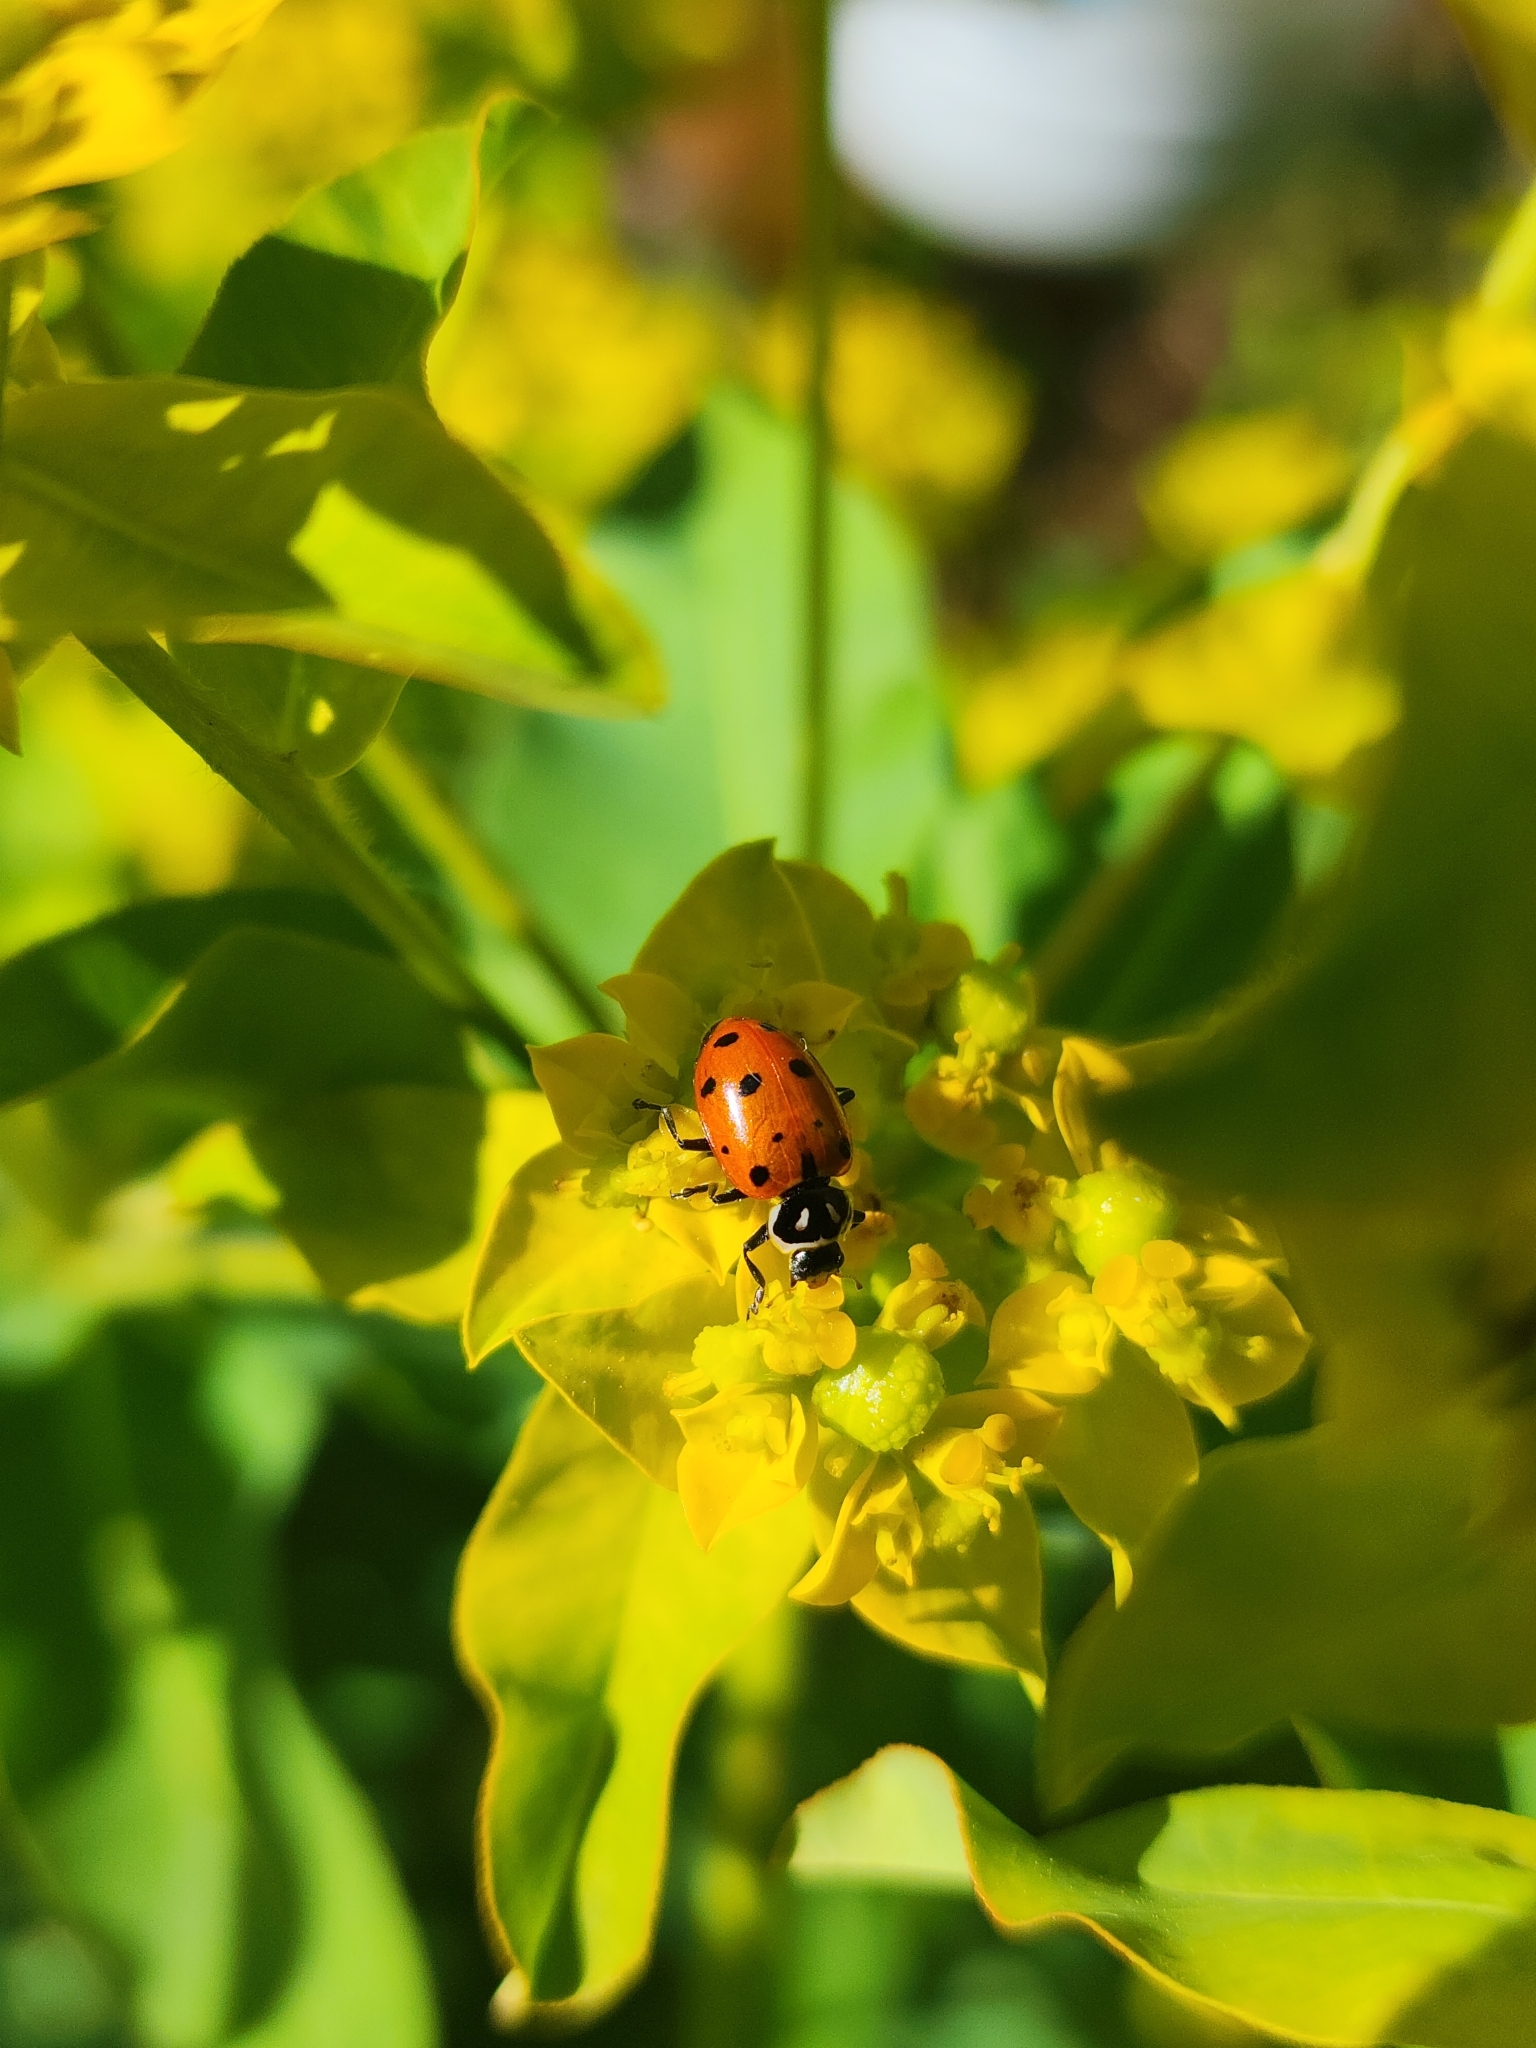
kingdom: Animalia
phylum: Arthropoda
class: Insecta
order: Coleoptera
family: Coccinellidae
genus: Hippodamia
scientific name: Hippodamia convergens
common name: Convergent lady beetle
